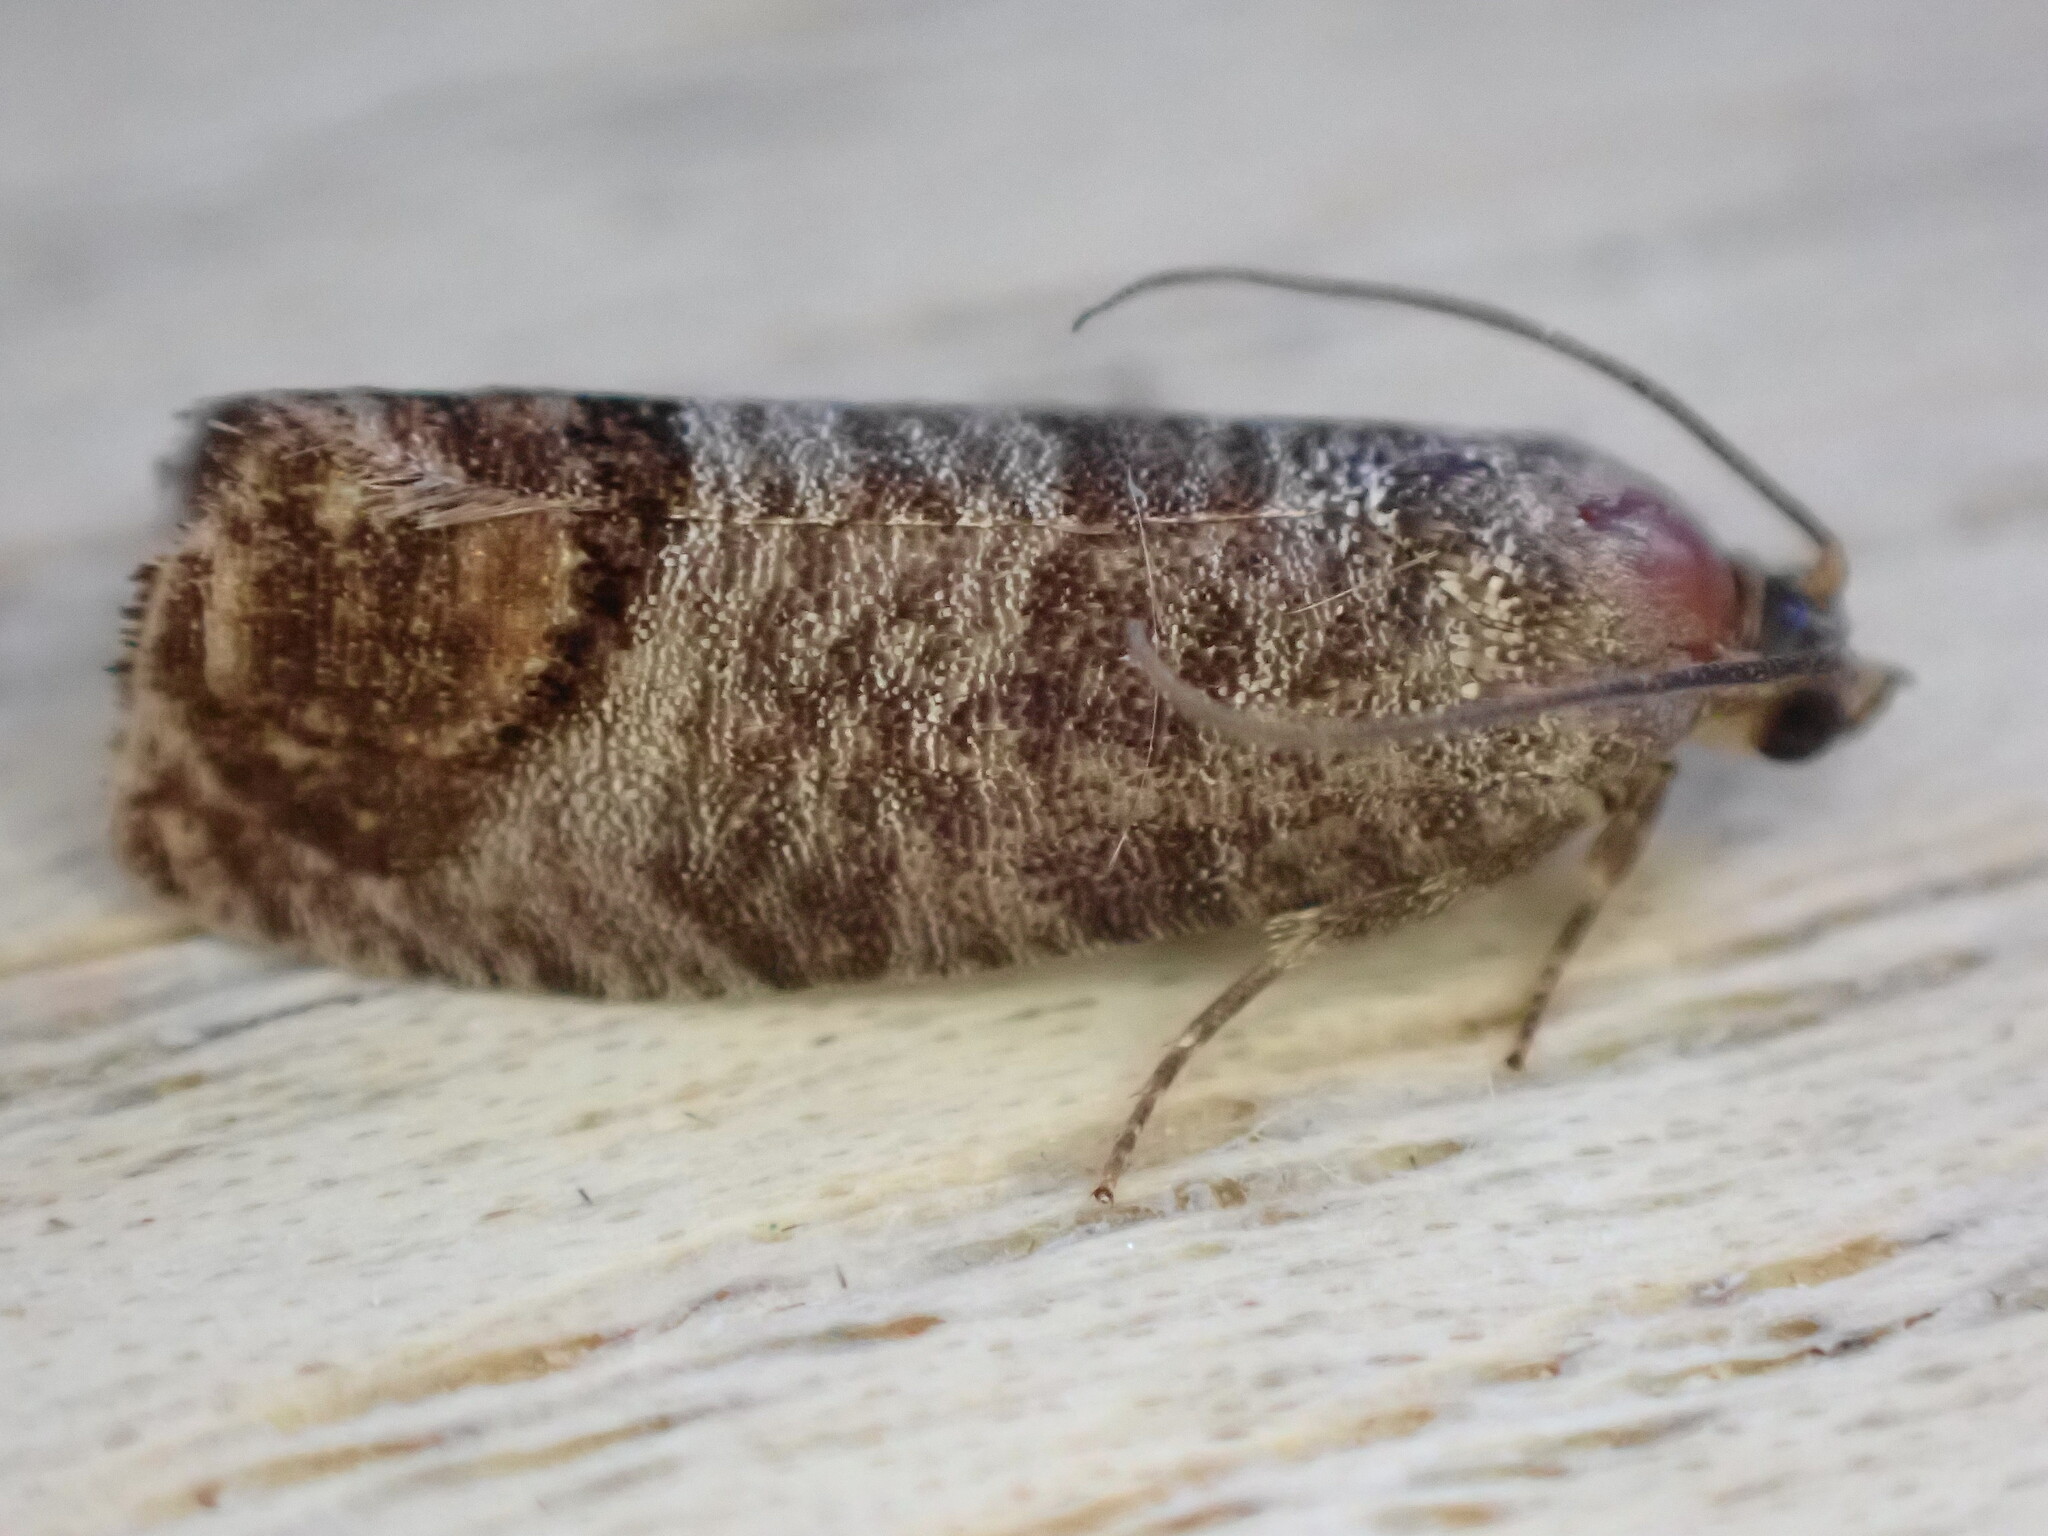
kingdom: Animalia
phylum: Arthropoda
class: Insecta
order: Lepidoptera
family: Tortricidae
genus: Cydia
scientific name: Cydia pomonella
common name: Codling moth
